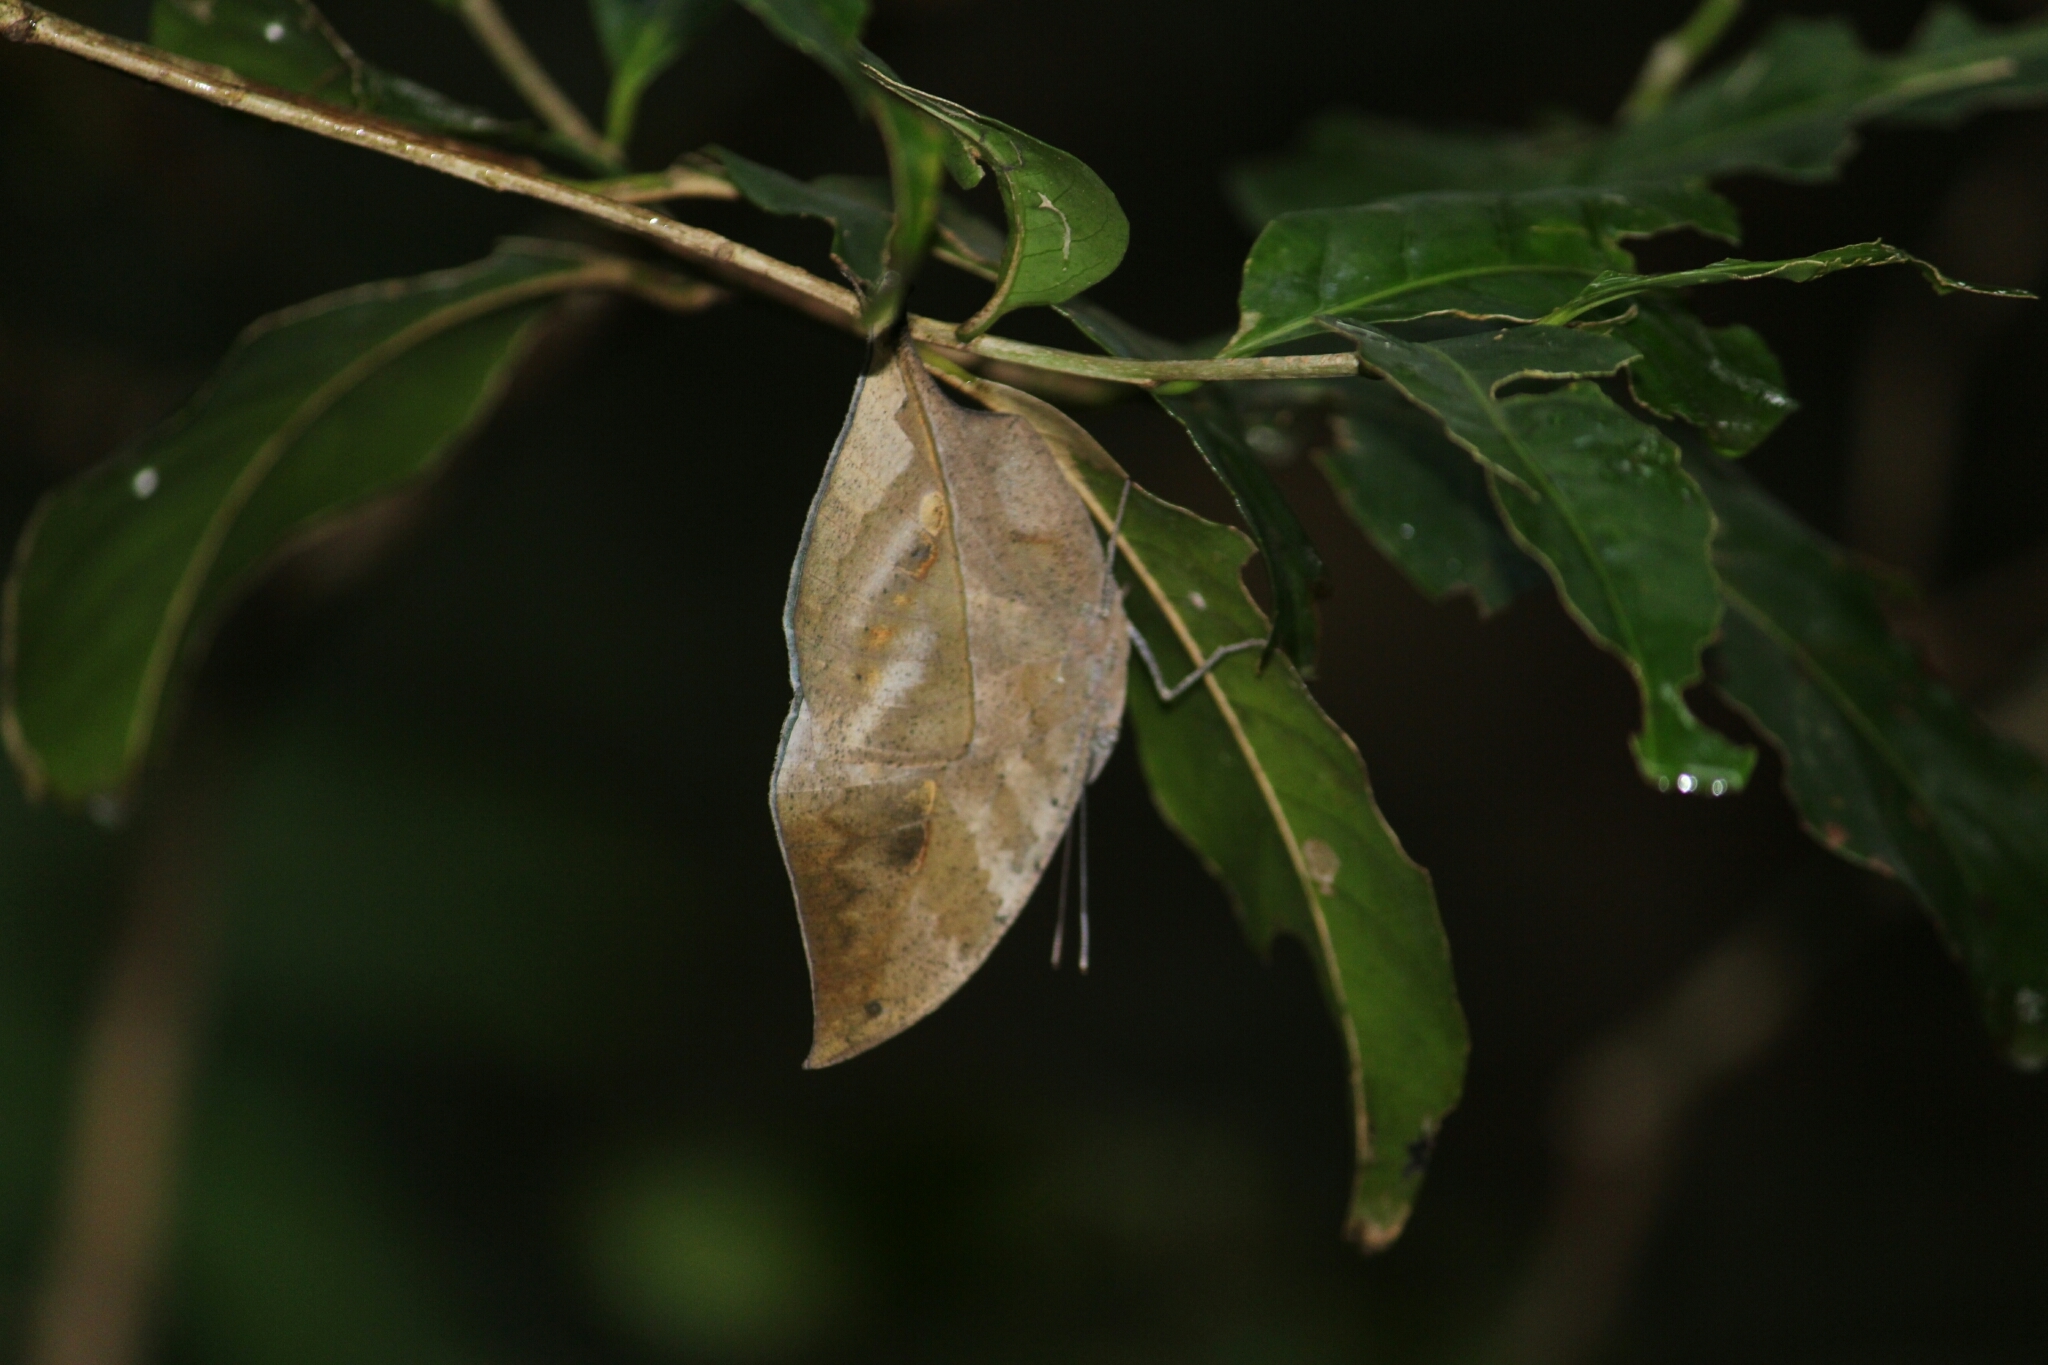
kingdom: Animalia
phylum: Arthropoda
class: Insecta
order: Lepidoptera
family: Nymphalidae
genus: Kallima
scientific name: Kallima horsfieldii
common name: Sahyadri blue oakleaf
